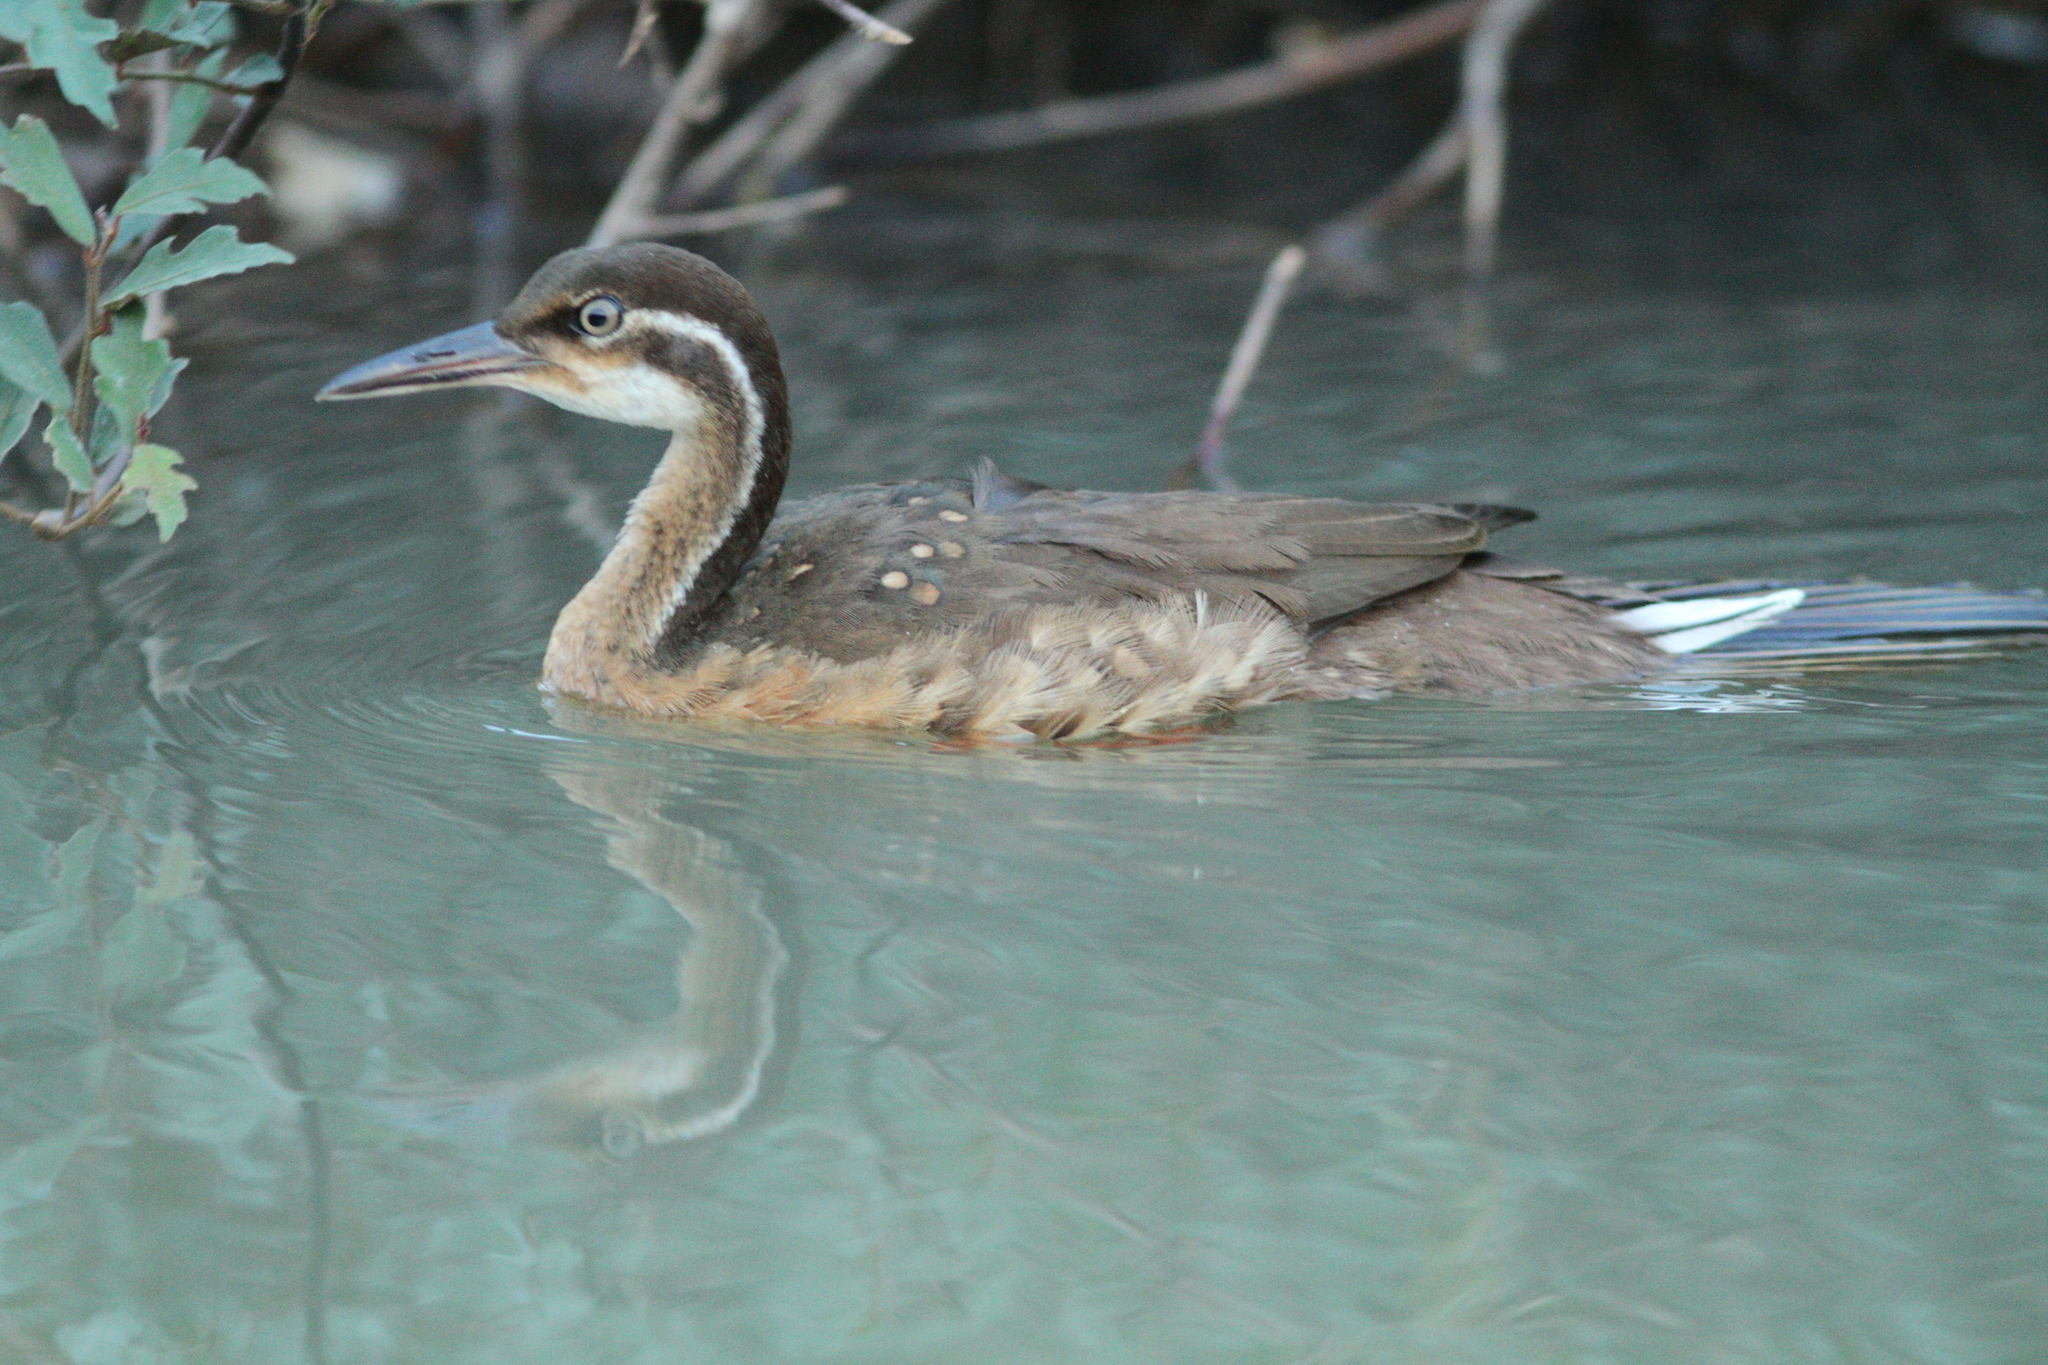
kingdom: Animalia
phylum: Chordata
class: Aves
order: Gruiformes
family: Heliornithidae
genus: Podica
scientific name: Podica senegalensis
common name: African finfoot
